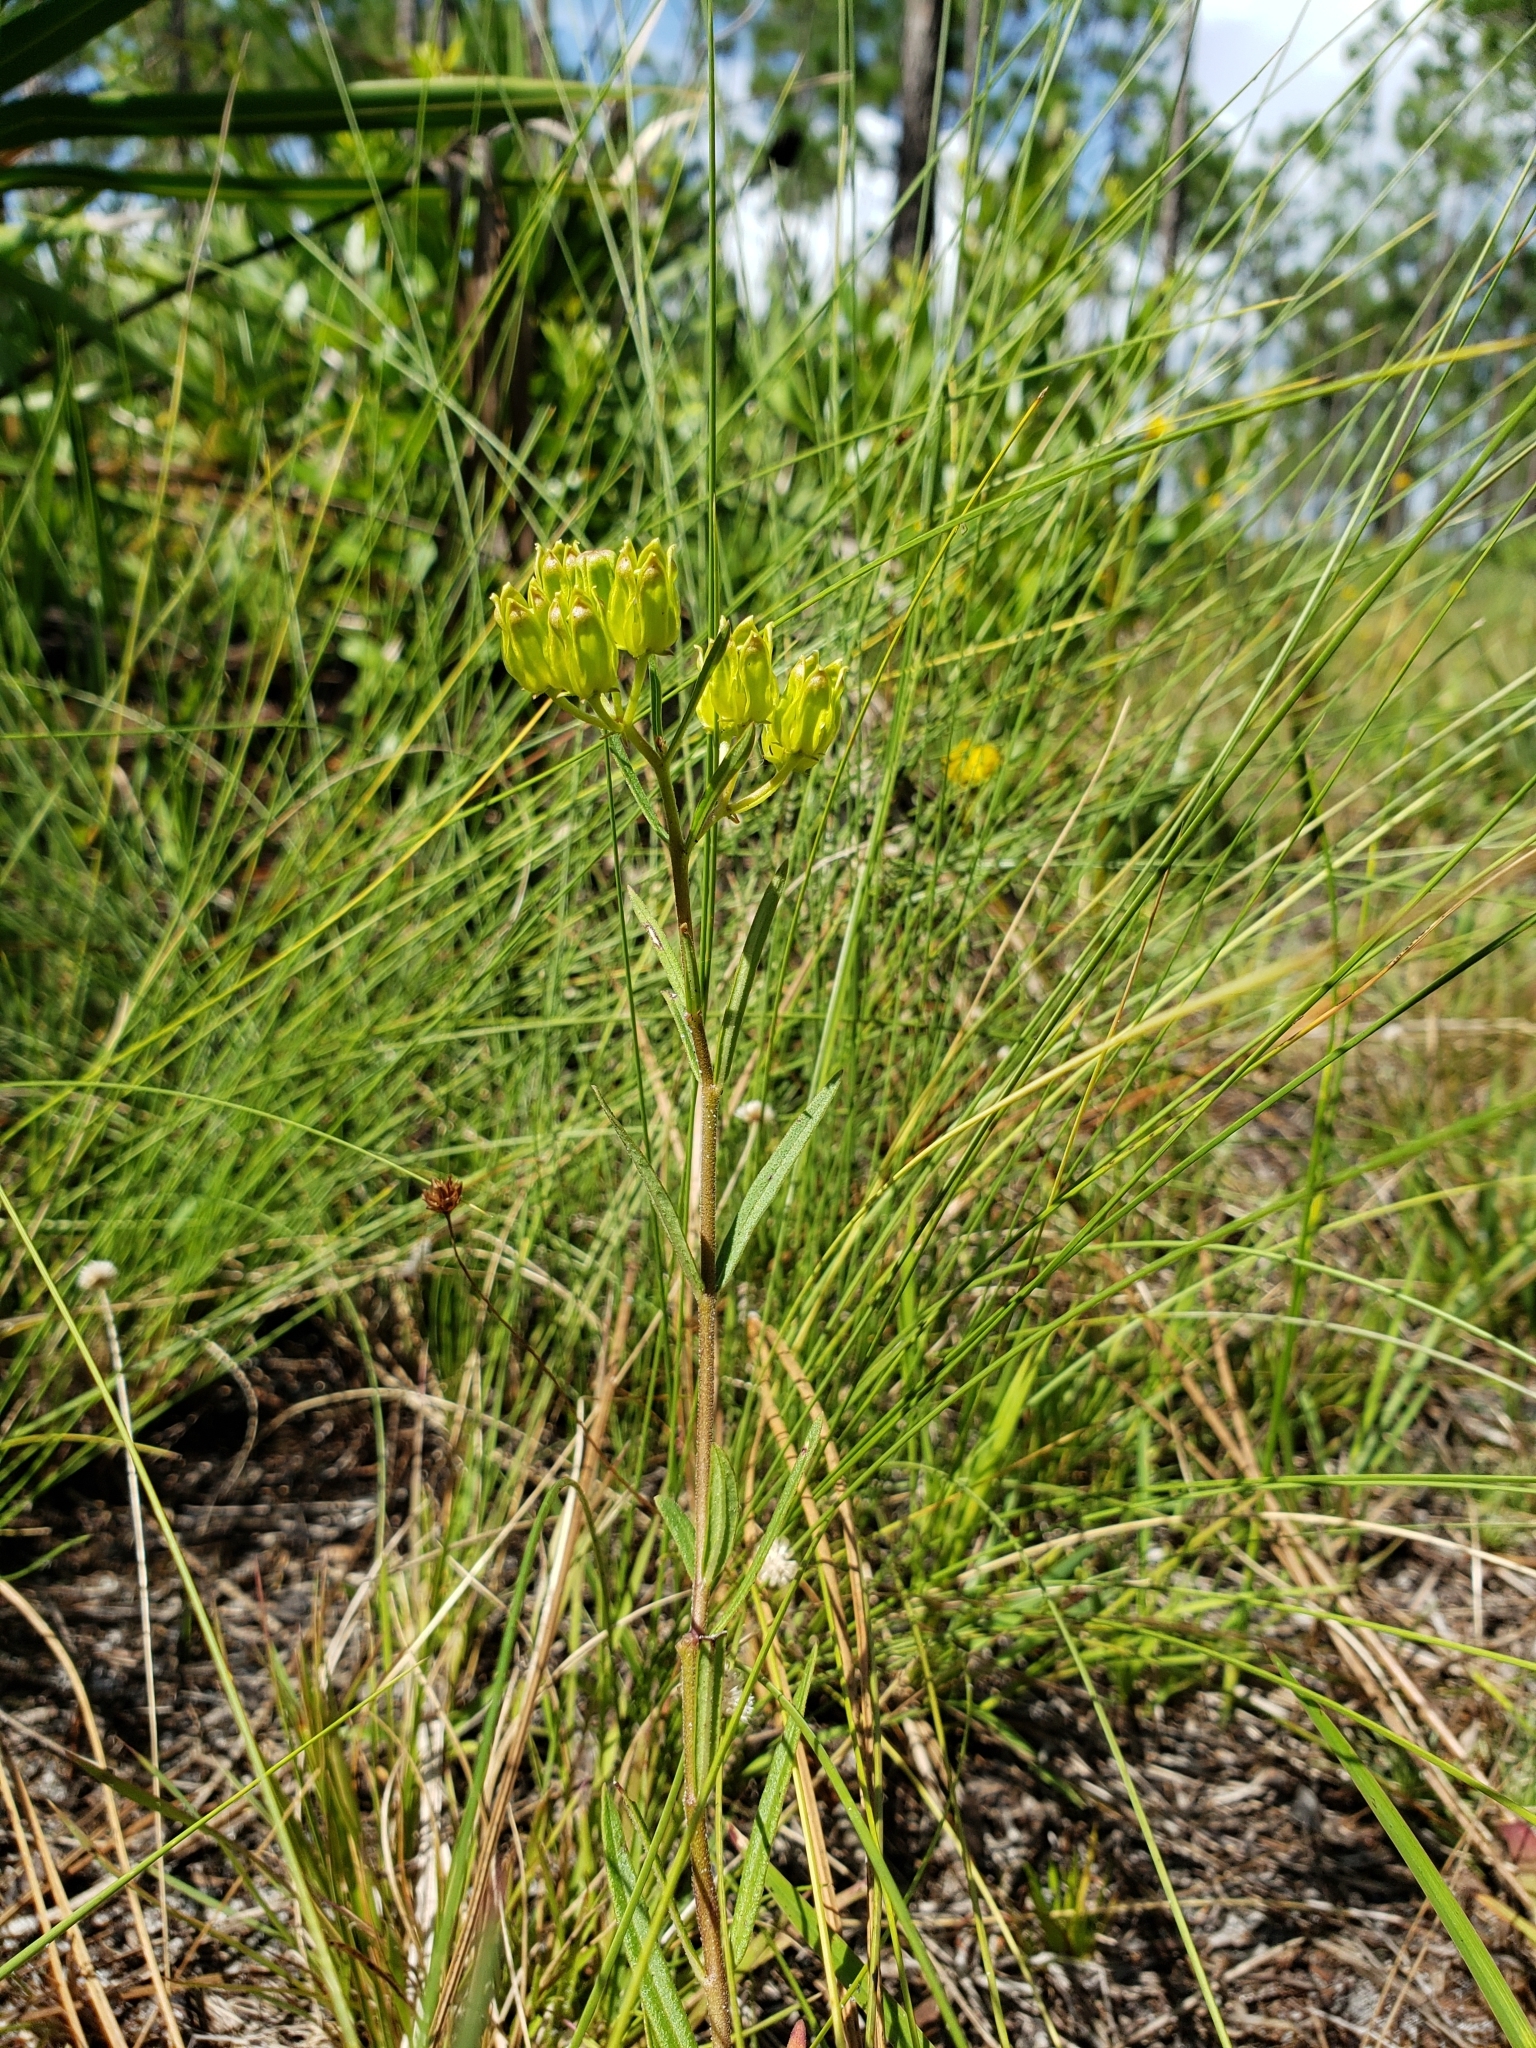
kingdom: Plantae
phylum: Tracheophyta
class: Magnoliopsida
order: Gentianales
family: Apocynaceae
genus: Asclepias
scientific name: Asclepias pedicellata
